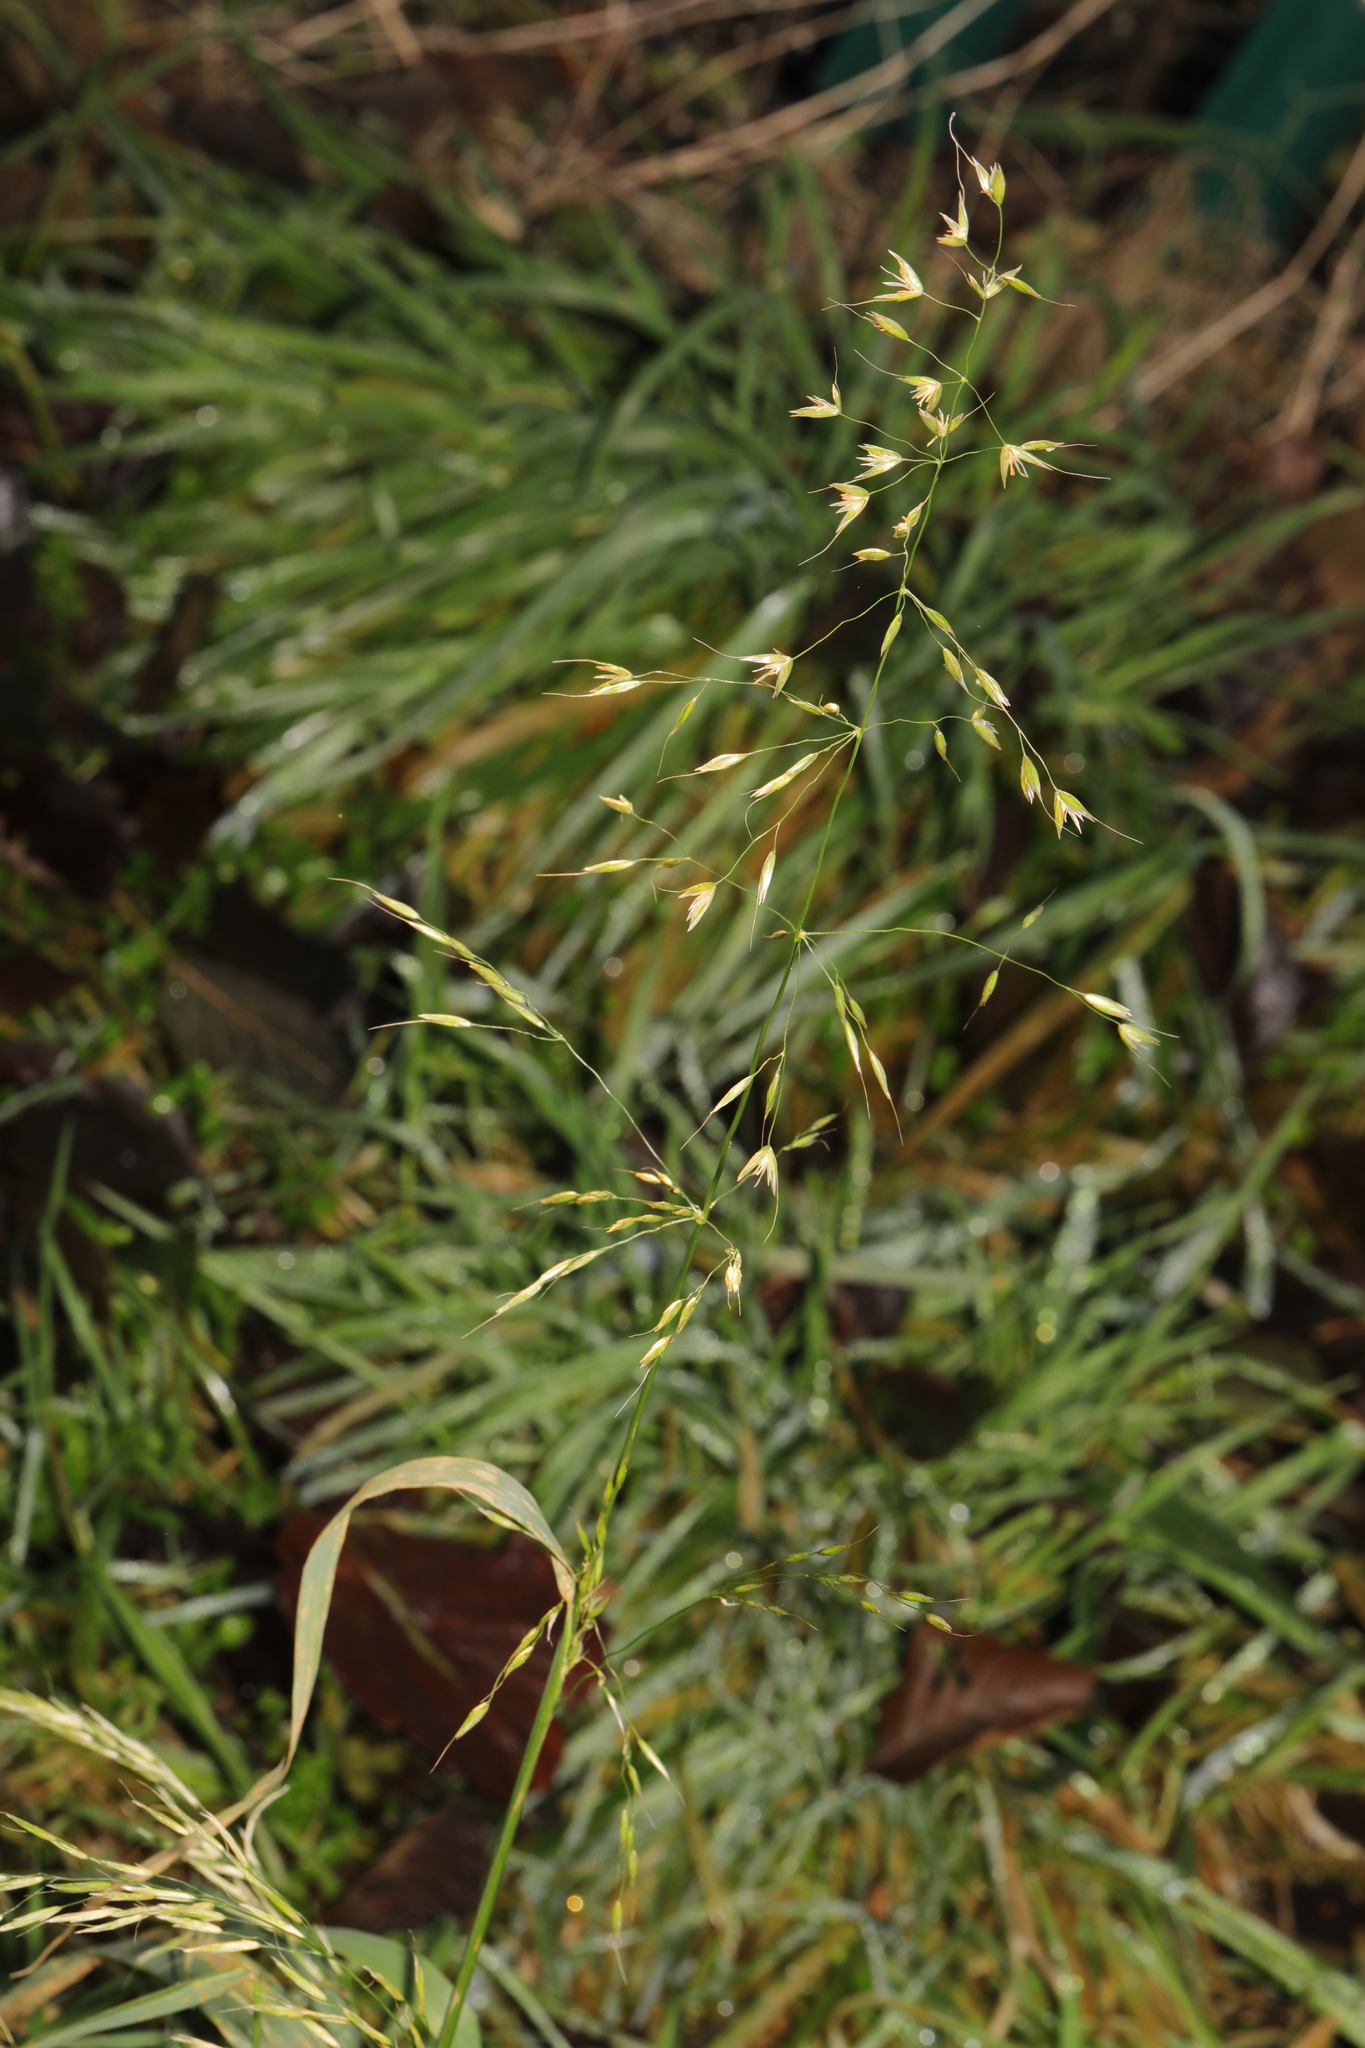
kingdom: Plantae
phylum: Tracheophyta
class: Liliopsida
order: Poales
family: Poaceae
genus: Arrhenatherum
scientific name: Arrhenatherum elatius
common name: Tall oatgrass
